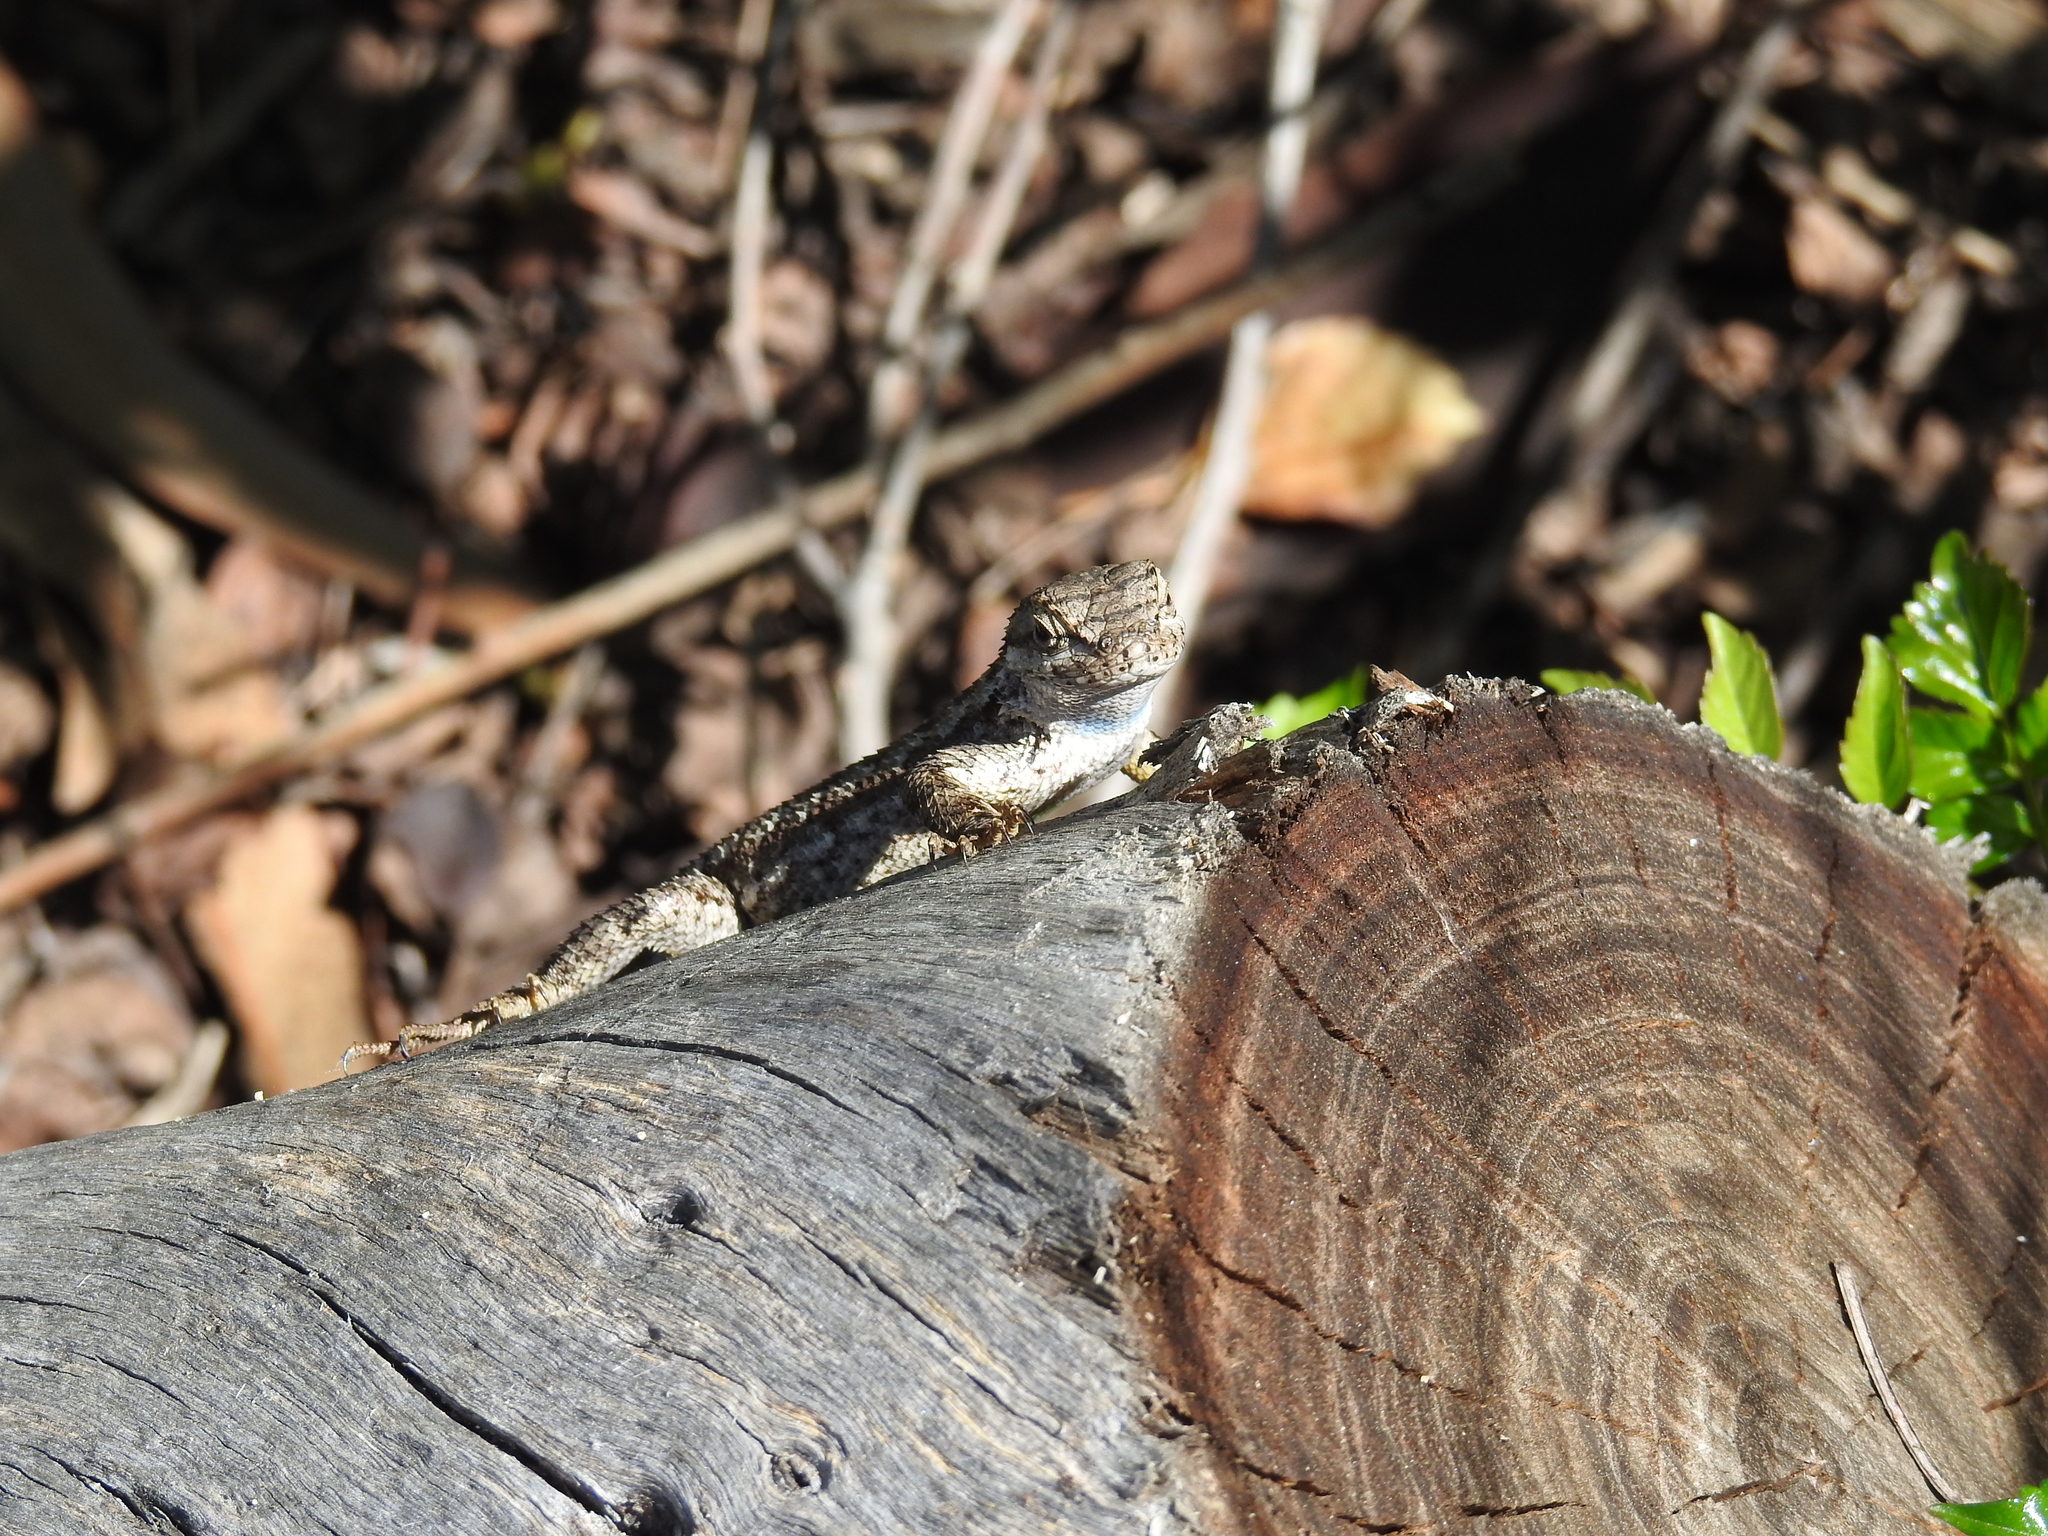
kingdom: Animalia
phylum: Chordata
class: Squamata
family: Phrynosomatidae
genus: Sceloporus
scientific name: Sceloporus occidentalis
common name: Western fence lizard
